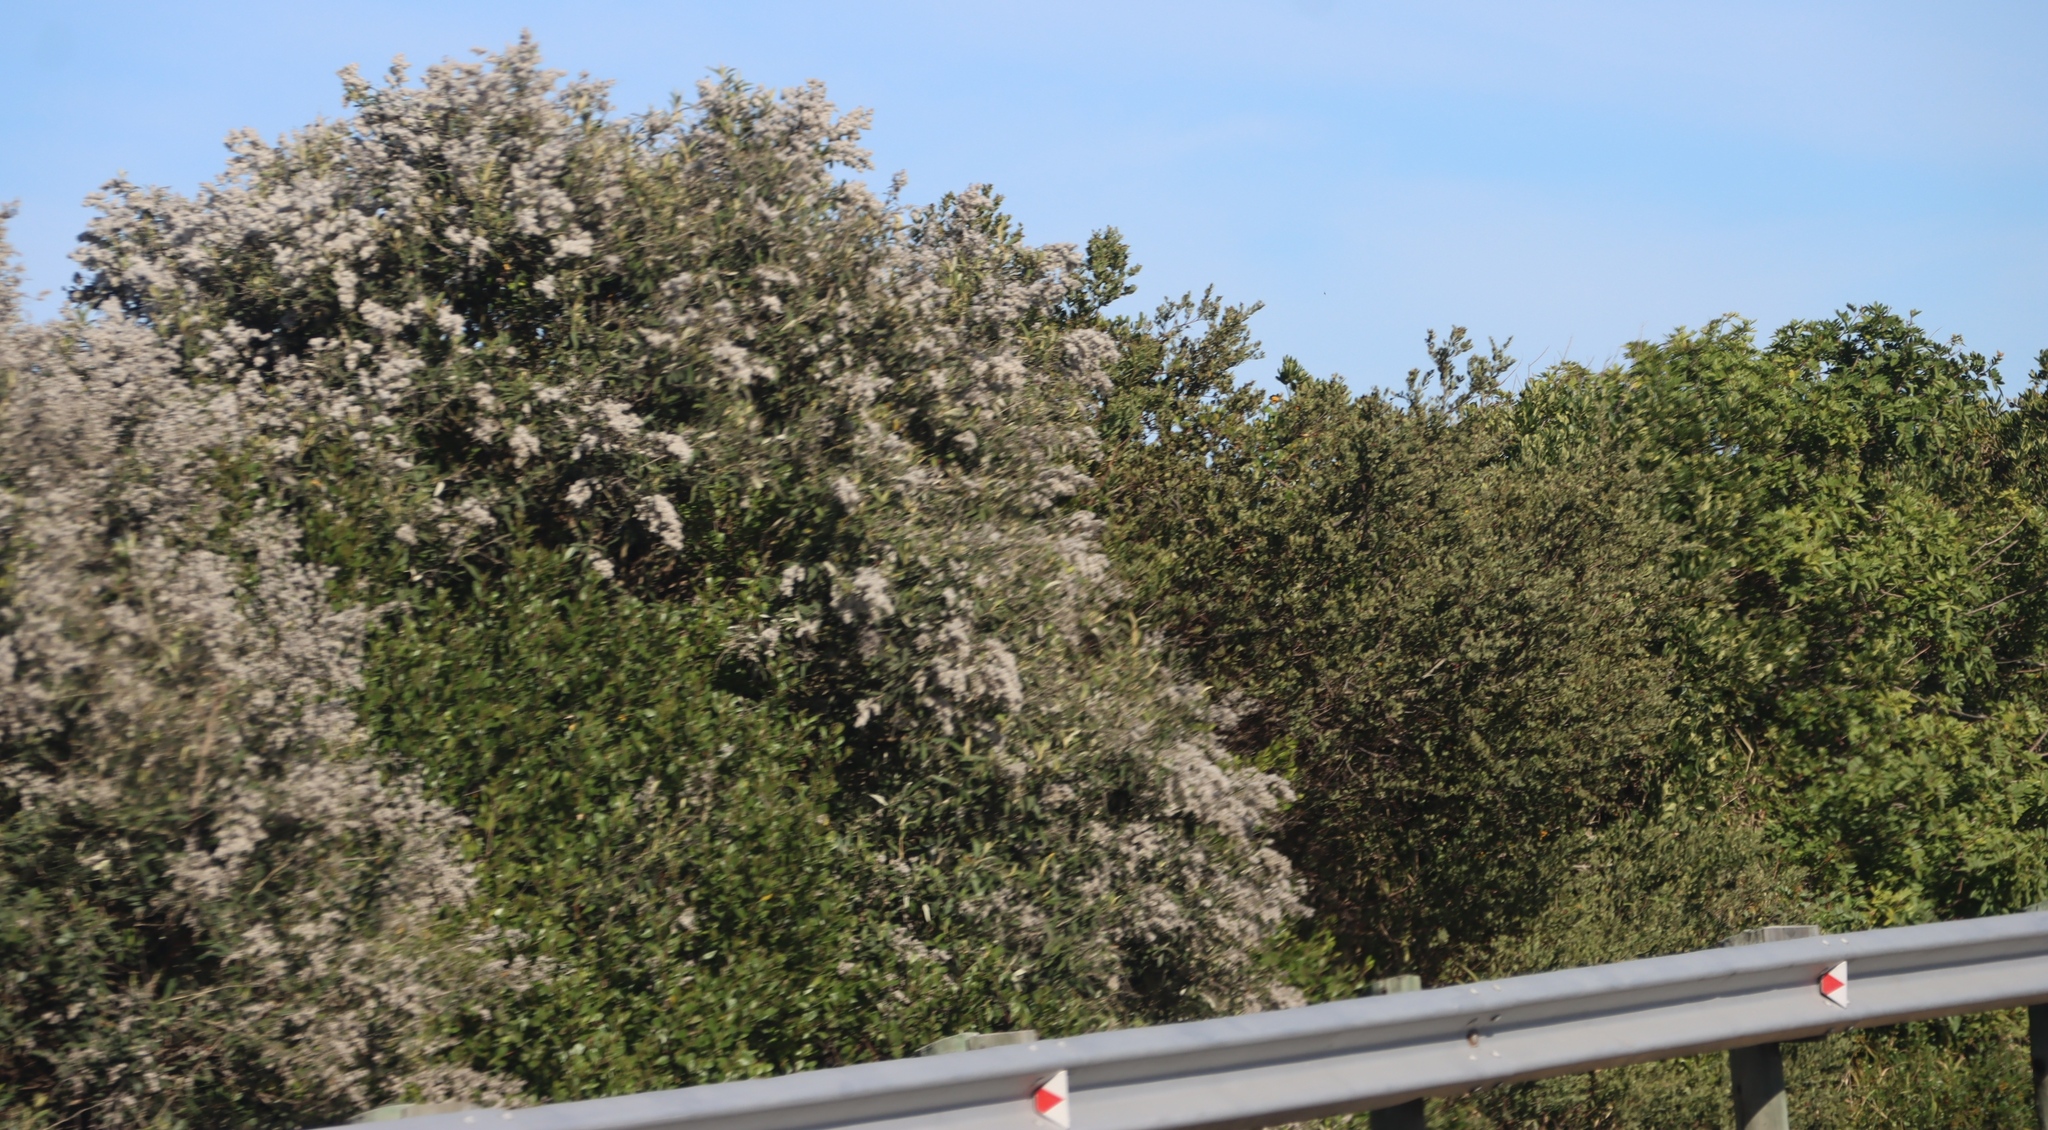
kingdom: Plantae
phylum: Tracheophyta
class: Magnoliopsida
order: Asterales
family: Asteraceae
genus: Tarchonanthus
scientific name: Tarchonanthus littoralis
